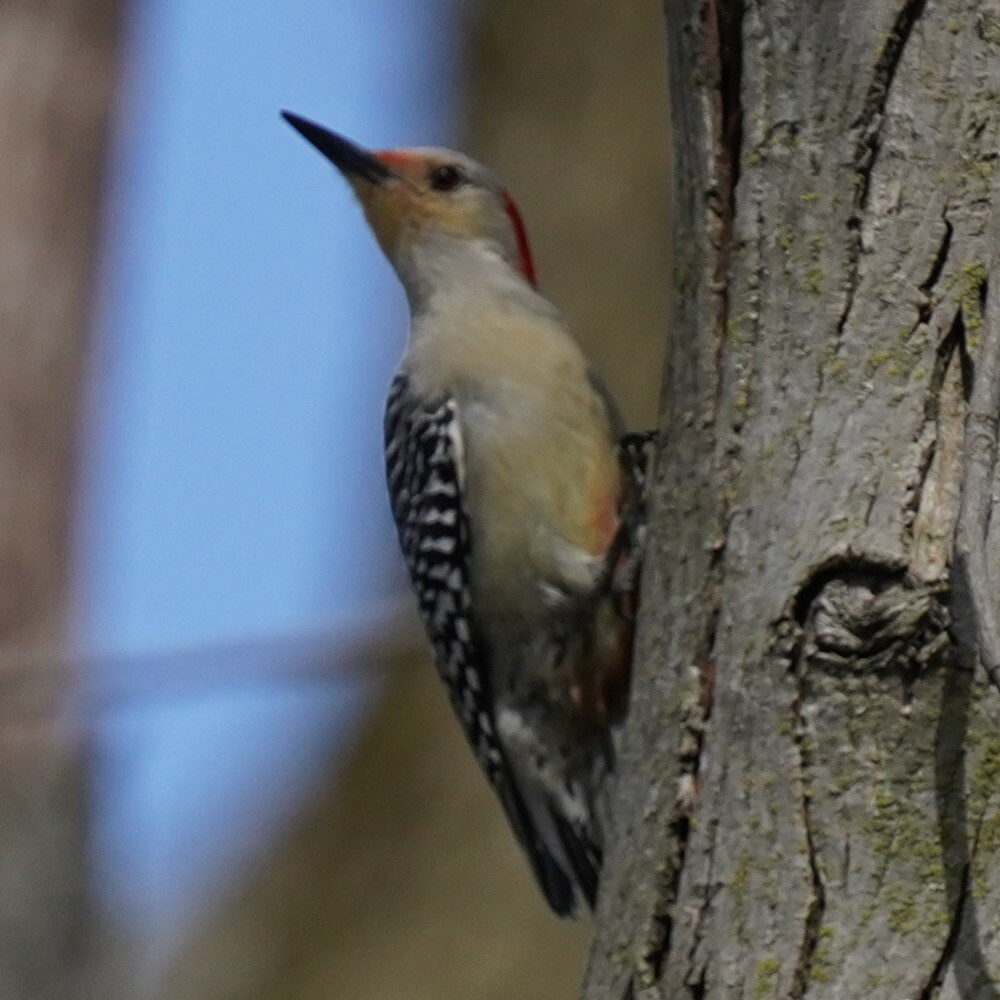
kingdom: Animalia
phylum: Chordata
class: Aves
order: Piciformes
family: Picidae
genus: Melanerpes
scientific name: Melanerpes carolinus
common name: Red-bellied woodpecker
